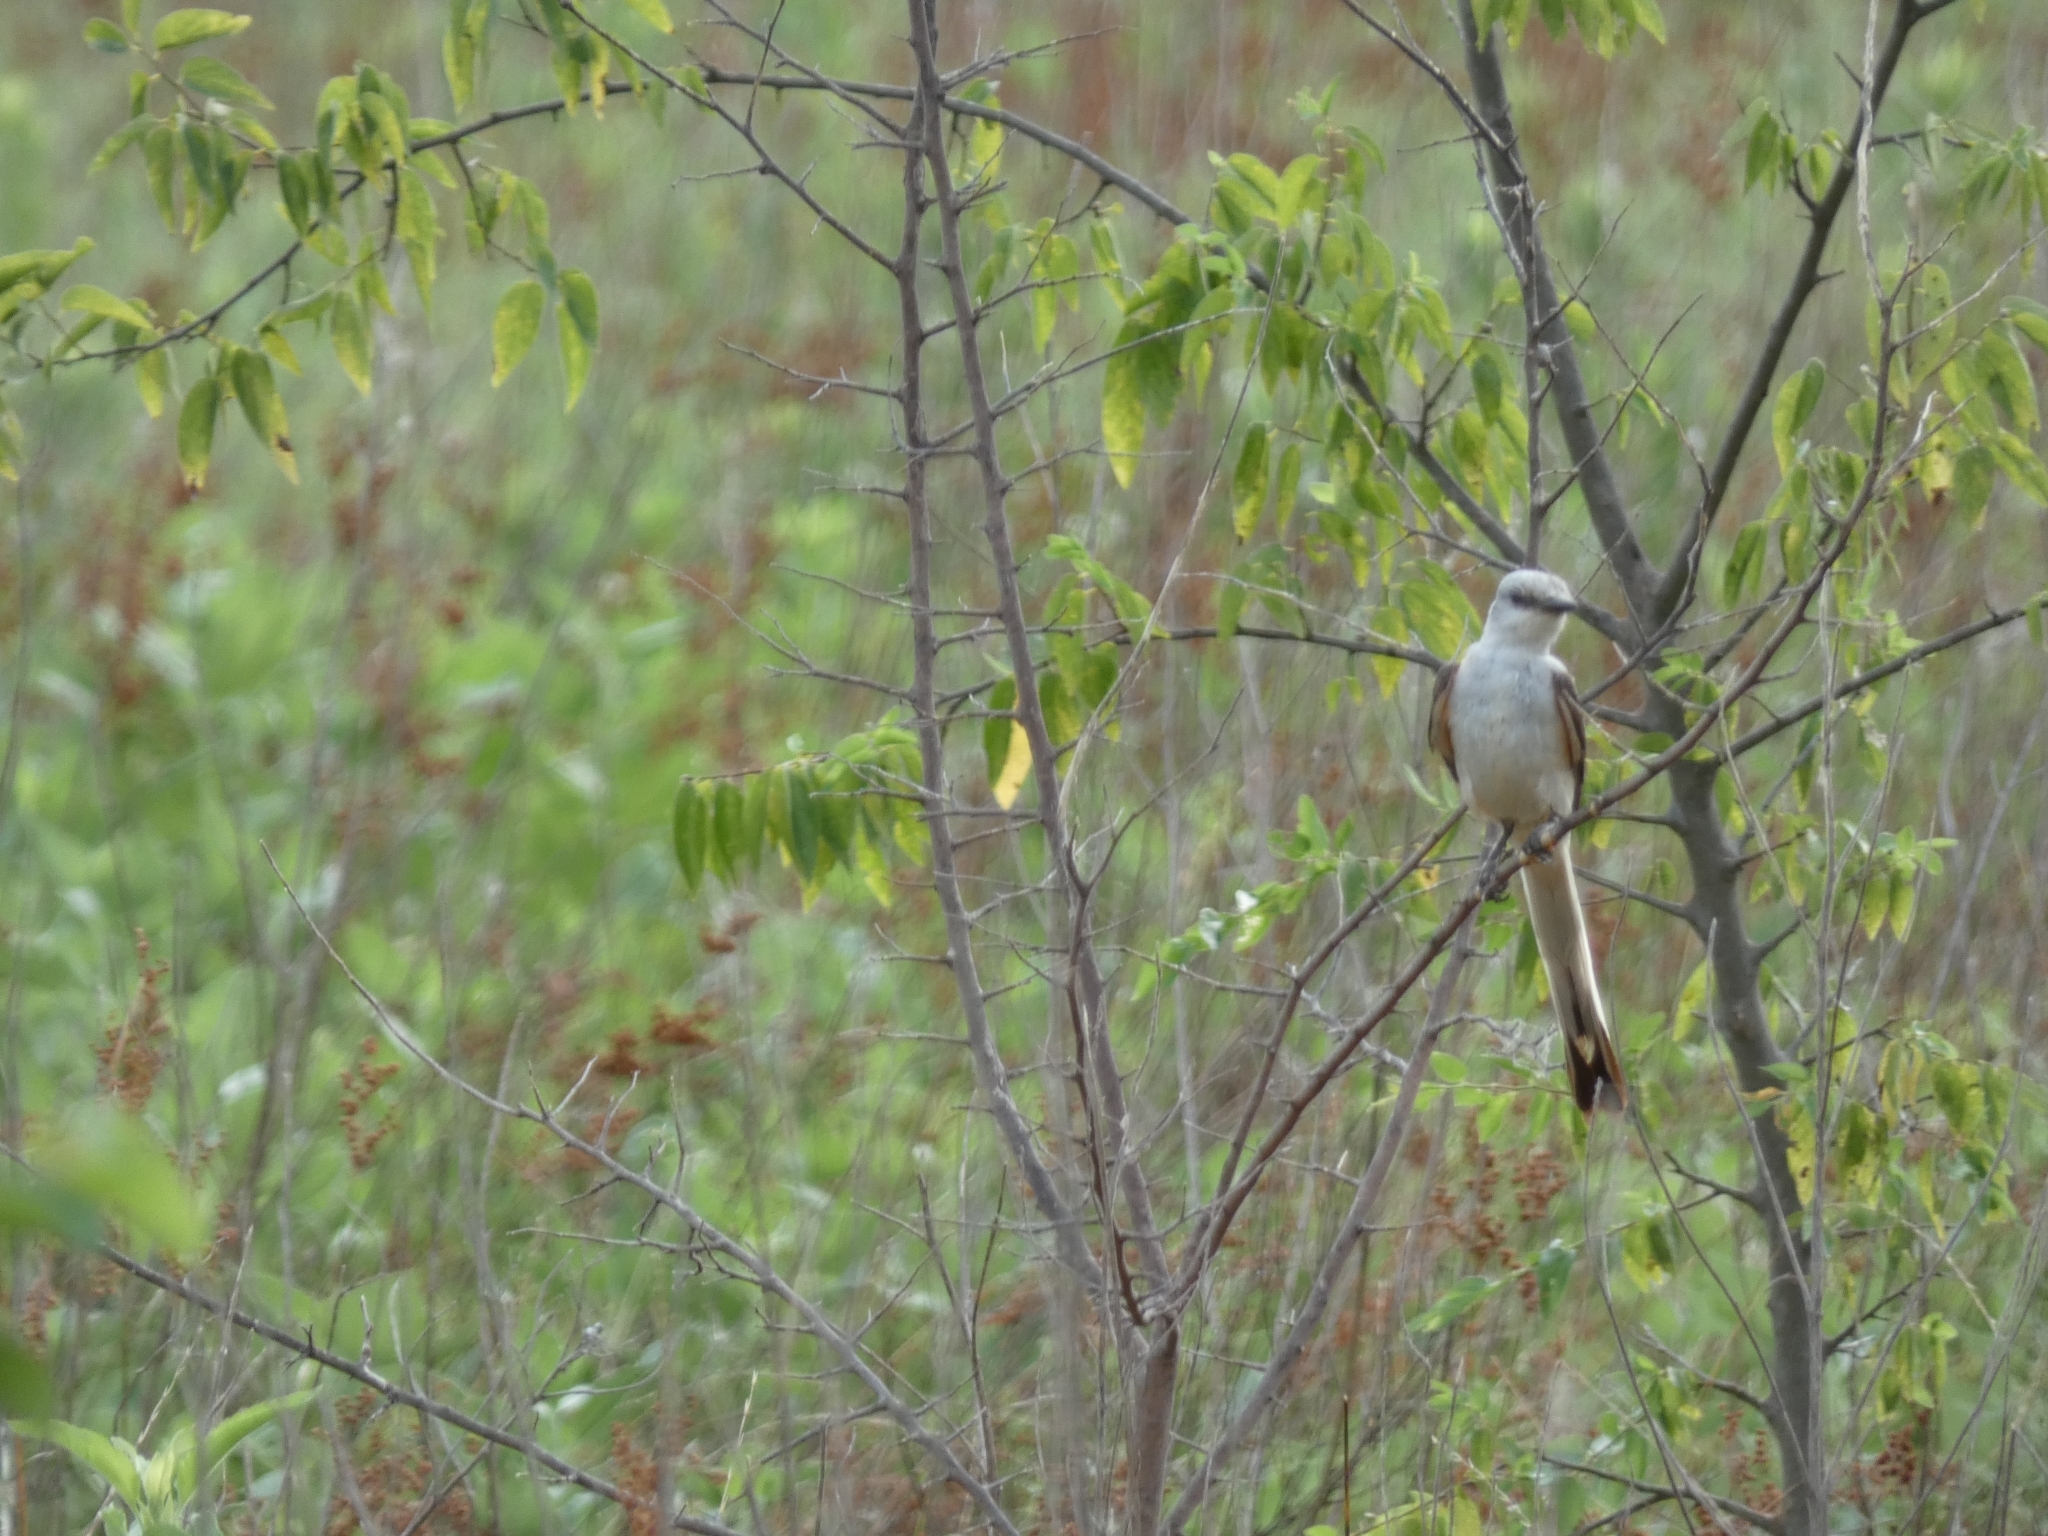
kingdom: Animalia
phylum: Chordata
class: Aves
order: Passeriformes
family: Tyrannidae
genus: Tyrannus
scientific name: Tyrannus forficatus
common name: Scissor-tailed flycatcher
